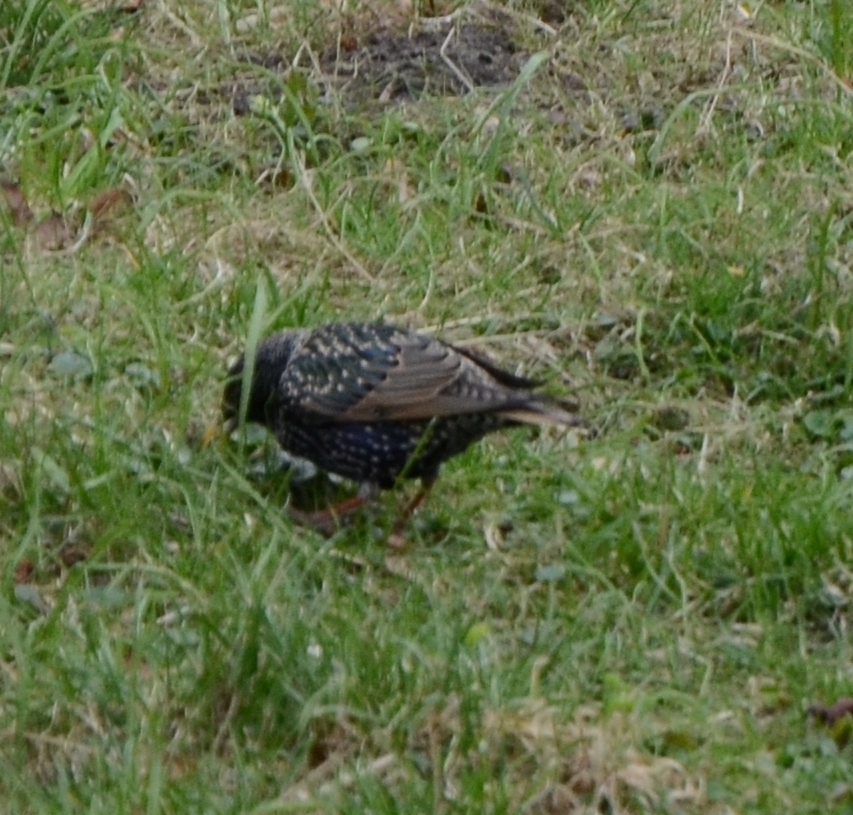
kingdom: Animalia
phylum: Chordata
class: Aves
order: Passeriformes
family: Sturnidae
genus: Sturnus
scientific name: Sturnus vulgaris
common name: Common starling
